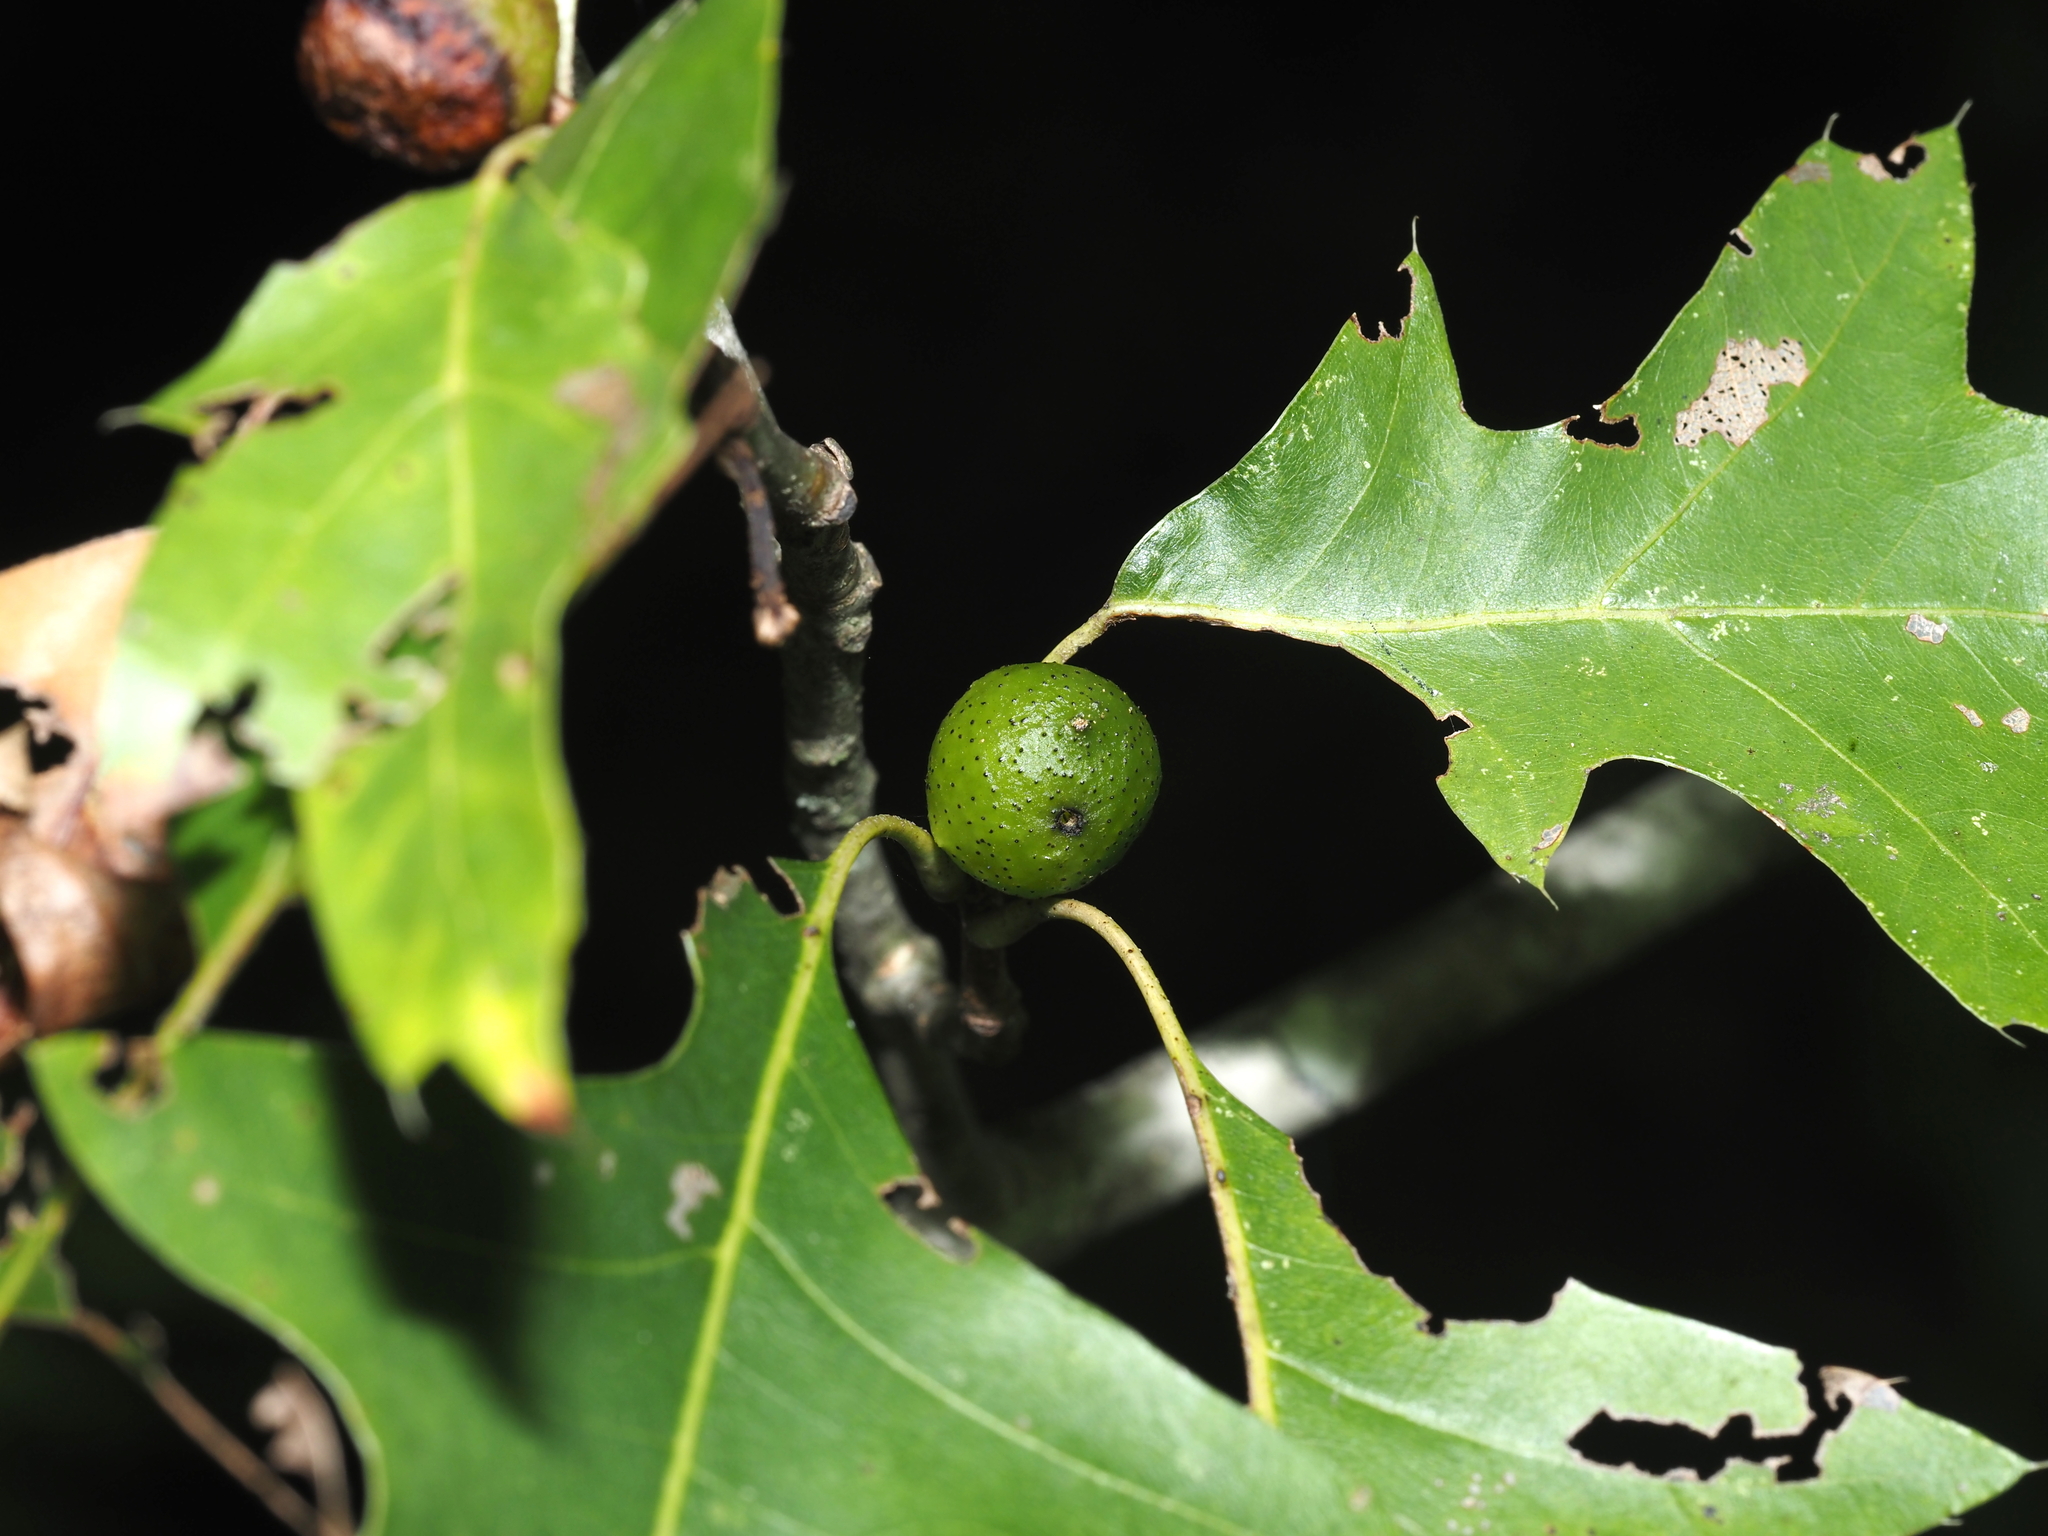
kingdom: Animalia
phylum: Arthropoda
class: Insecta
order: Hymenoptera
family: Cynipidae
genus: Amphibolips
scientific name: Amphibolips
